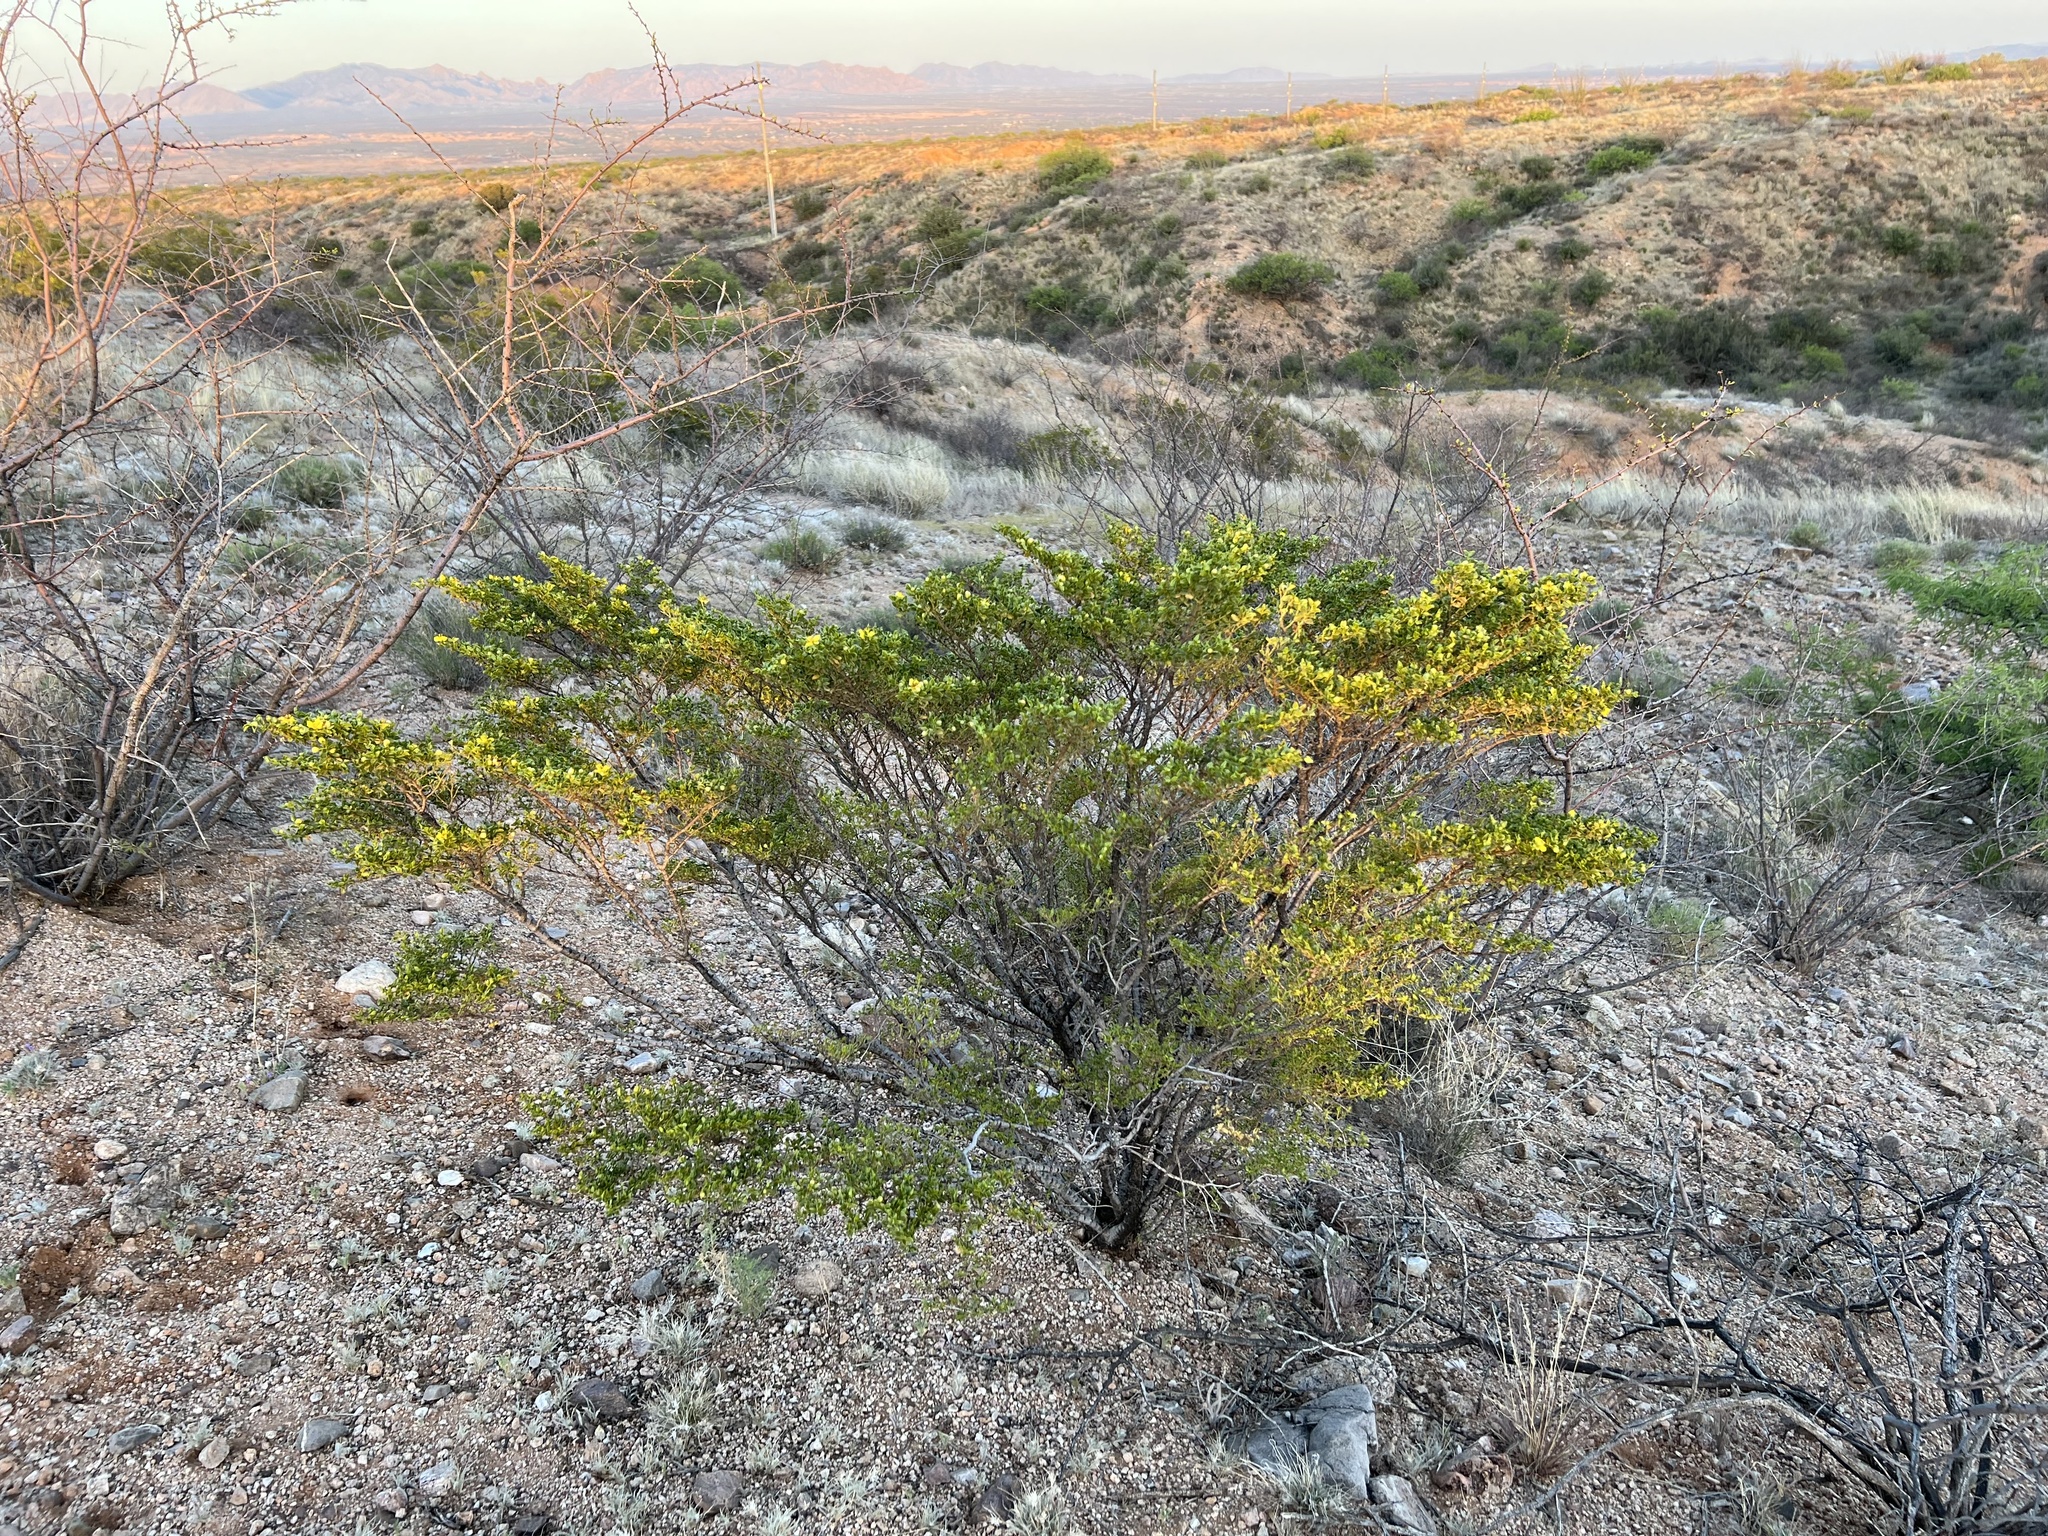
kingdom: Plantae
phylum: Tracheophyta
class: Magnoliopsida
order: Zygophyllales
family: Zygophyllaceae
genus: Larrea
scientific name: Larrea tridentata
